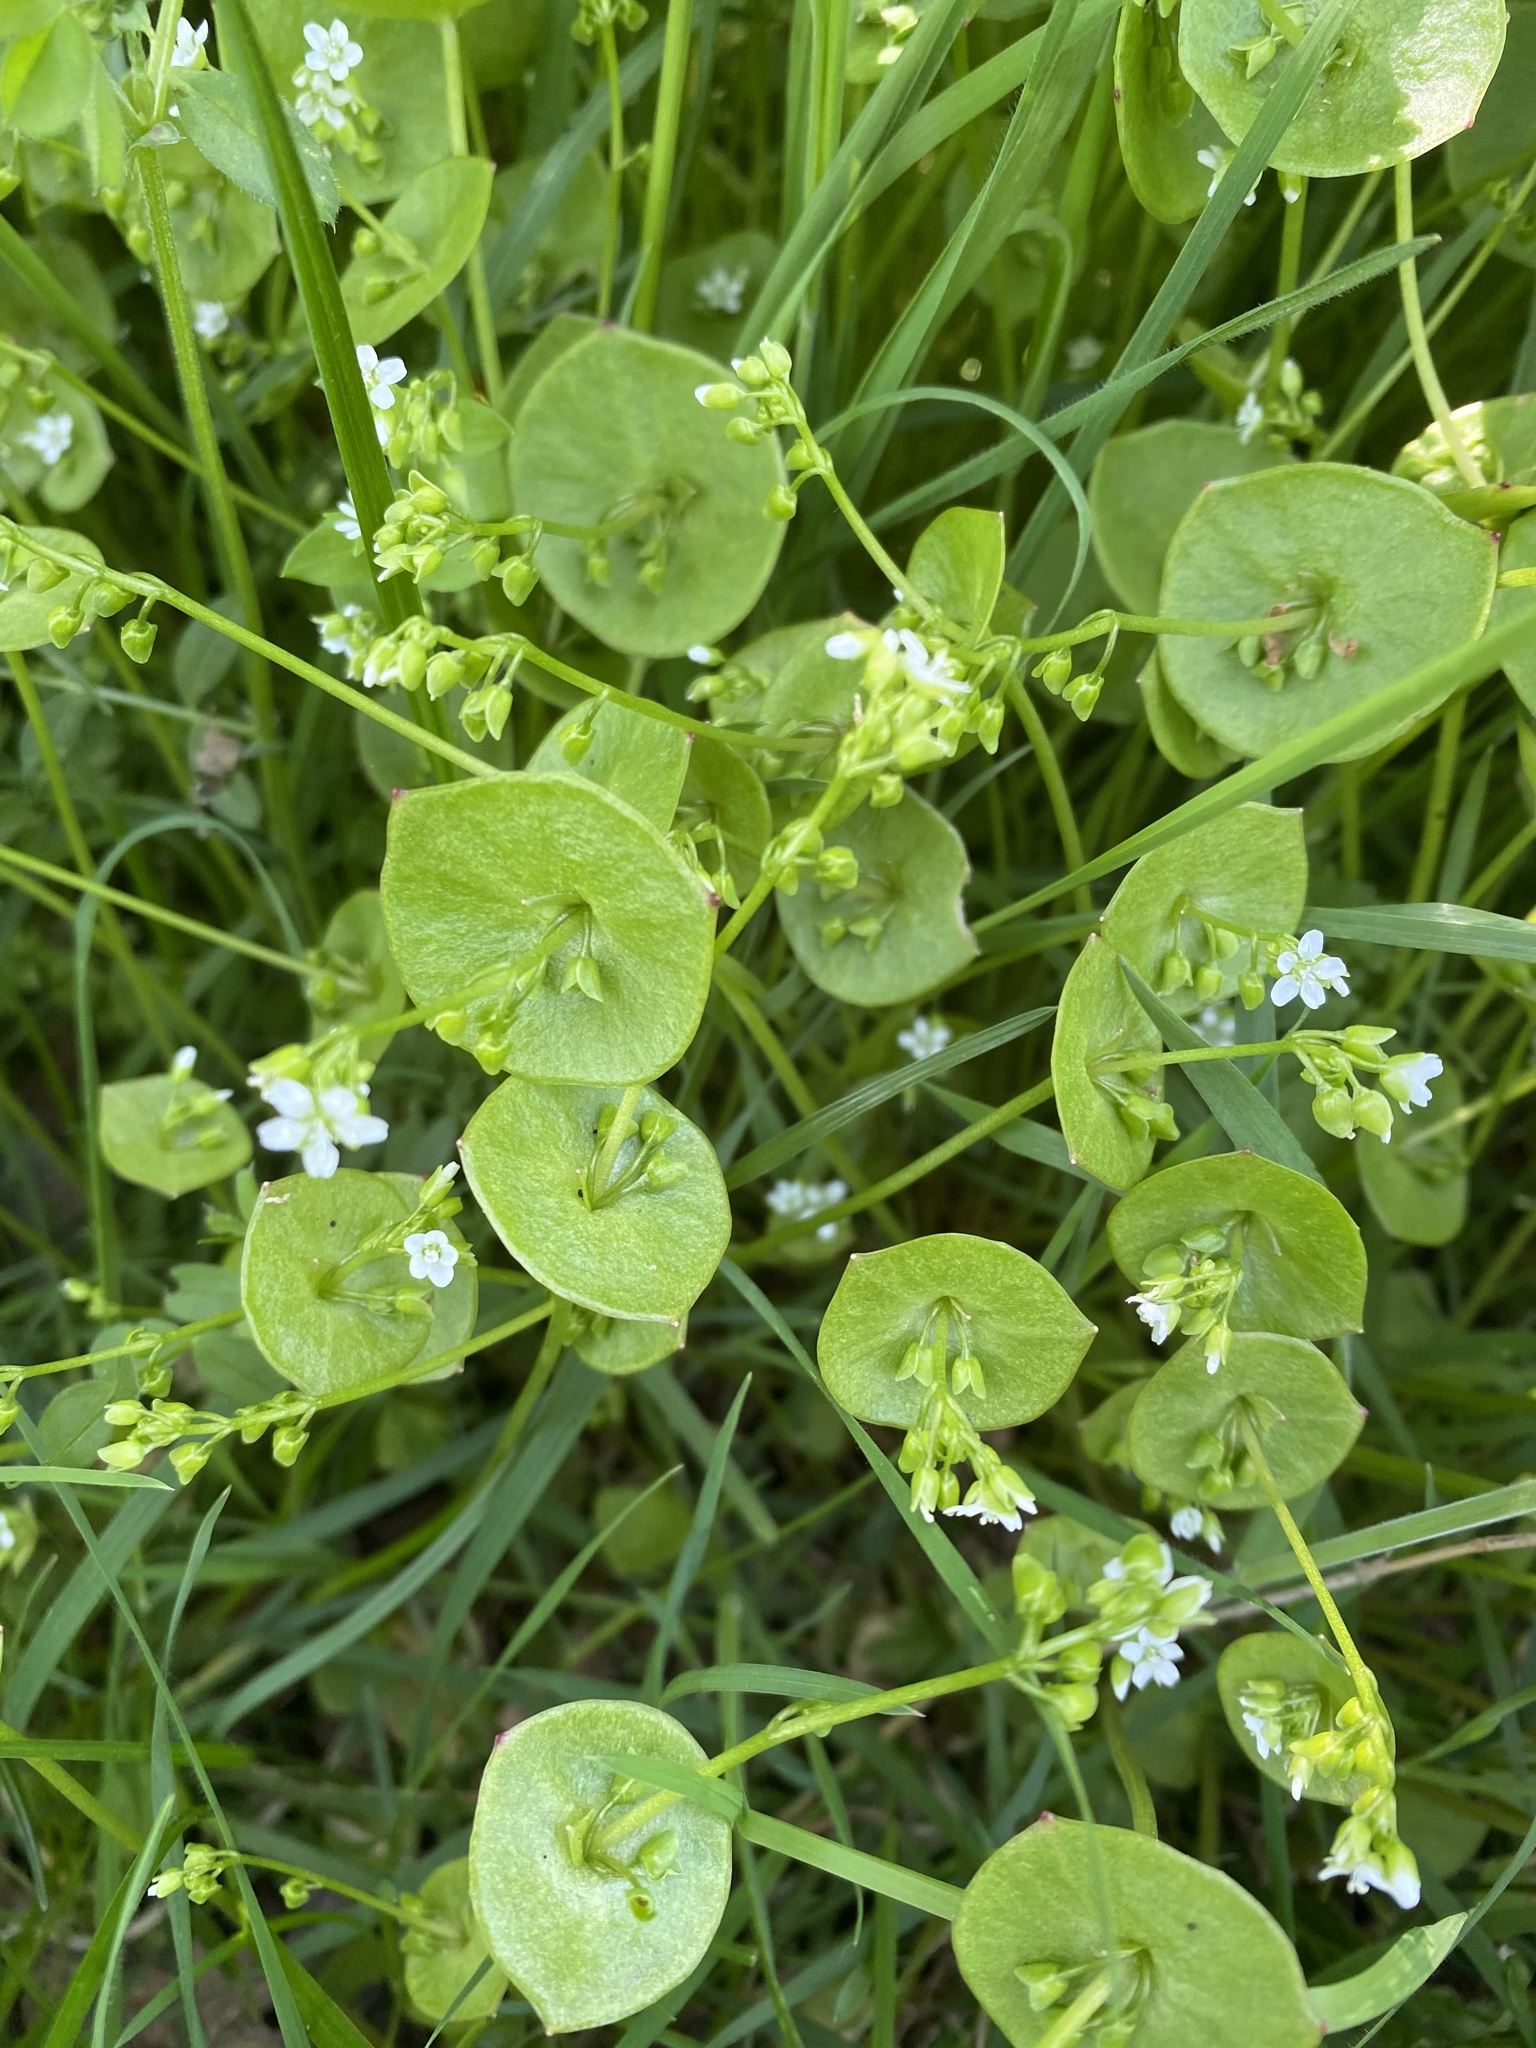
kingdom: Plantae
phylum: Tracheophyta
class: Magnoliopsida
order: Caryophyllales
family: Montiaceae
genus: Claytonia
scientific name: Claytonia perfoliata
